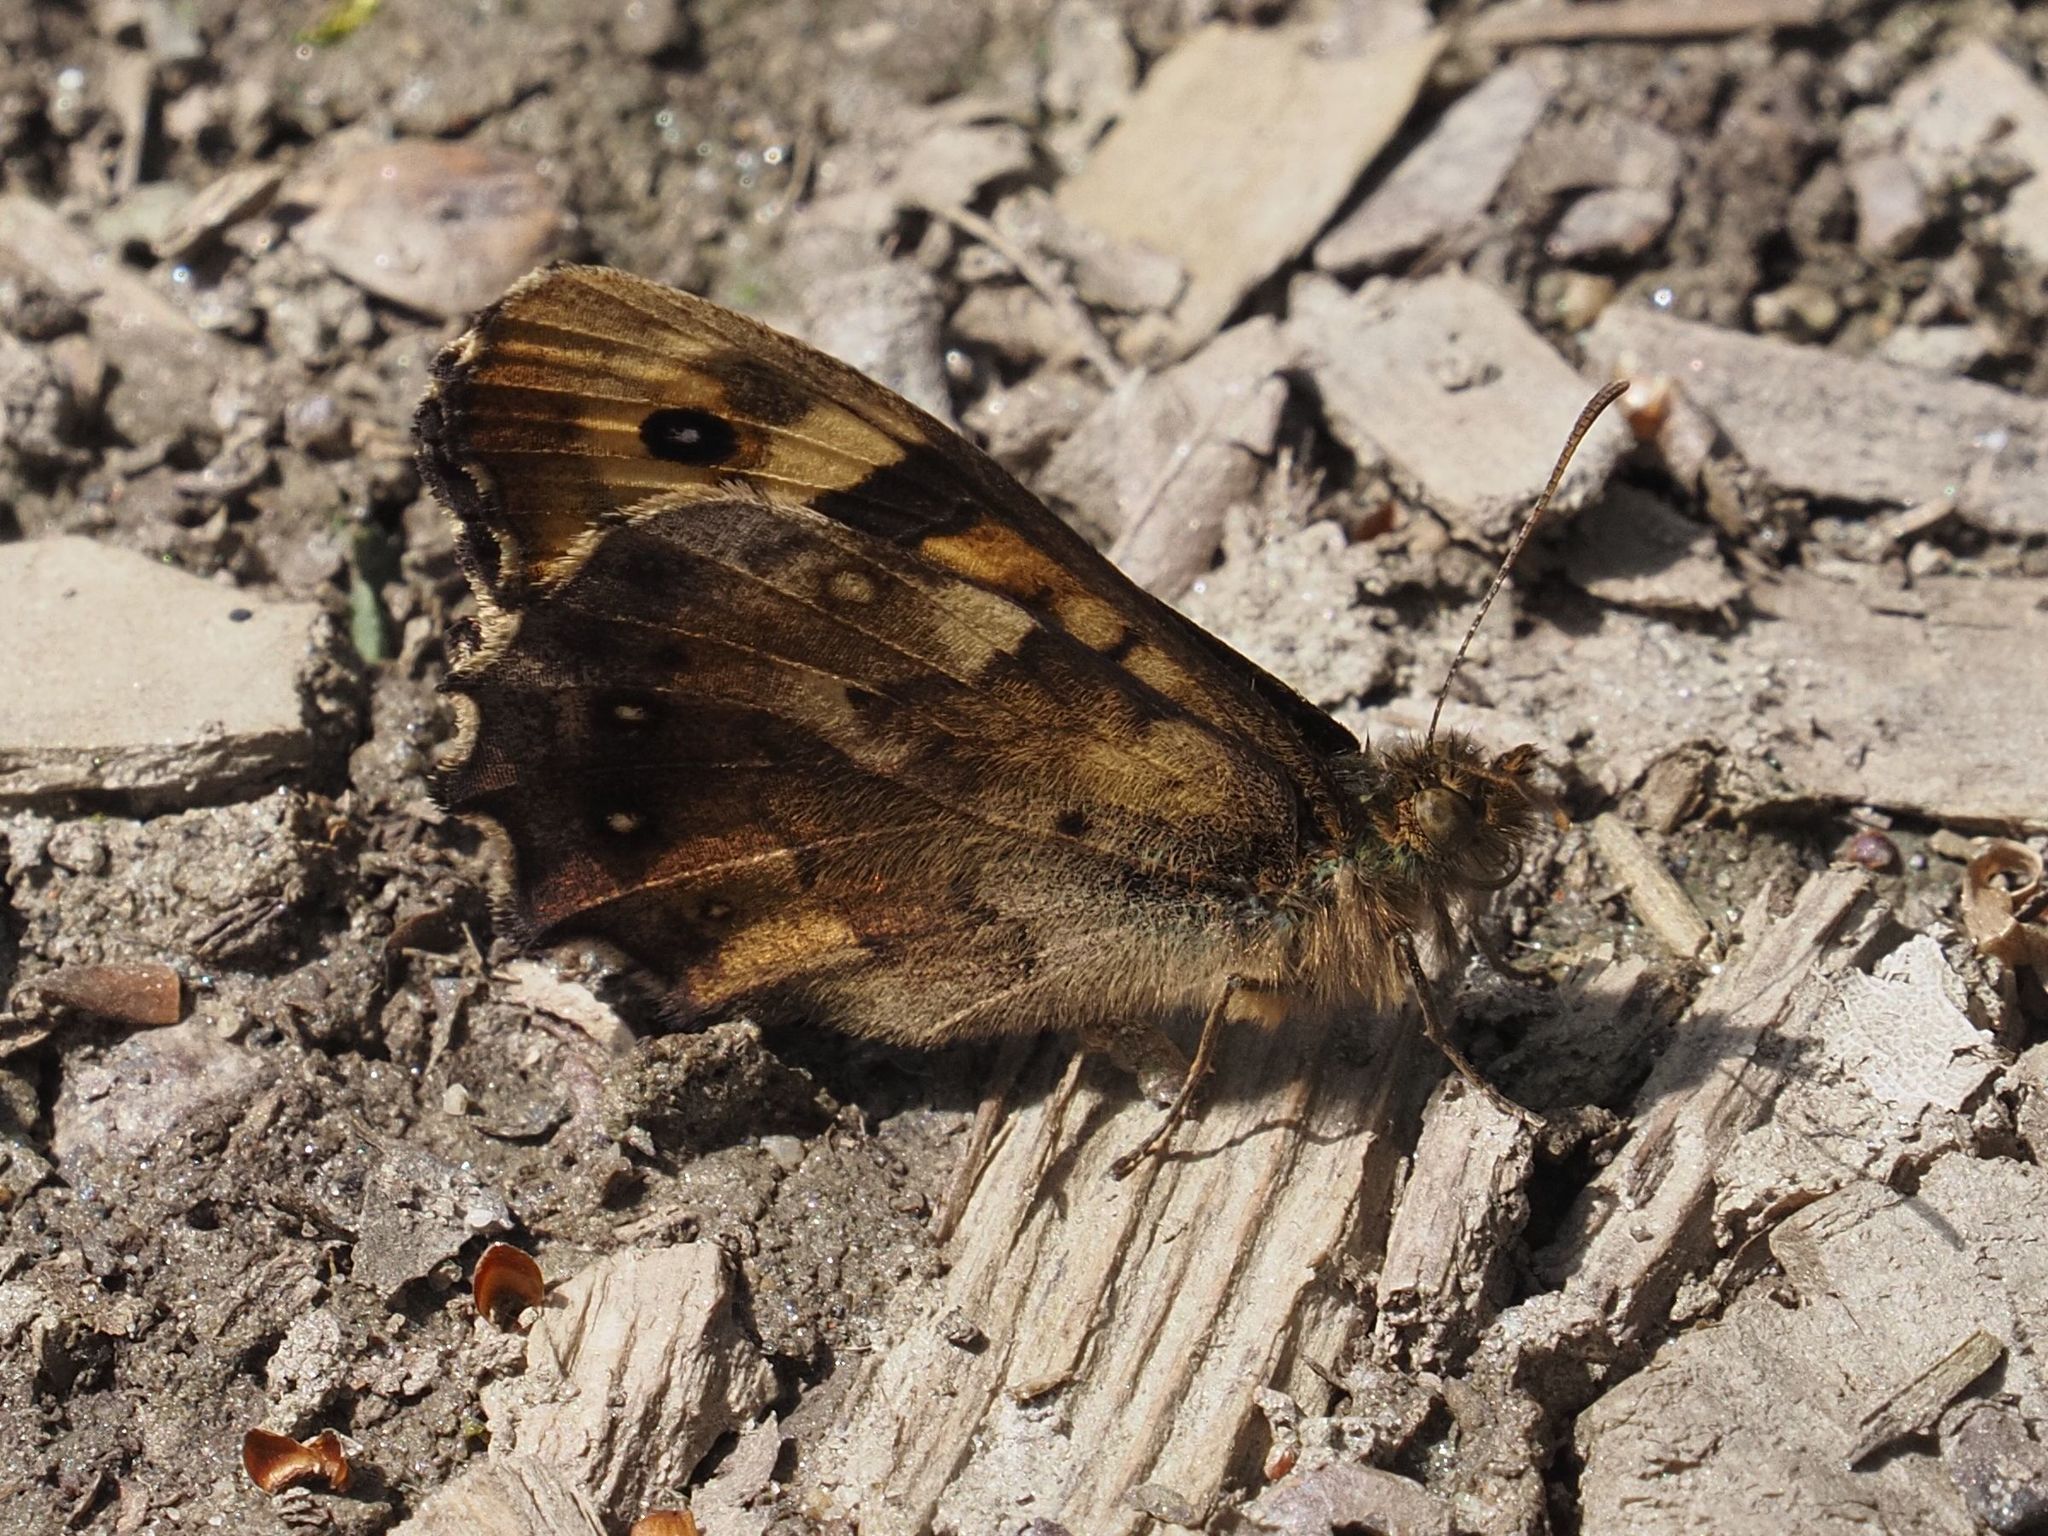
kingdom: Animalia
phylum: Arthropoda
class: Insecta
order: Lepidoptera
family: Nymphalidae
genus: Pararge
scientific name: Pararge aegeria
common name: Speckled wood
